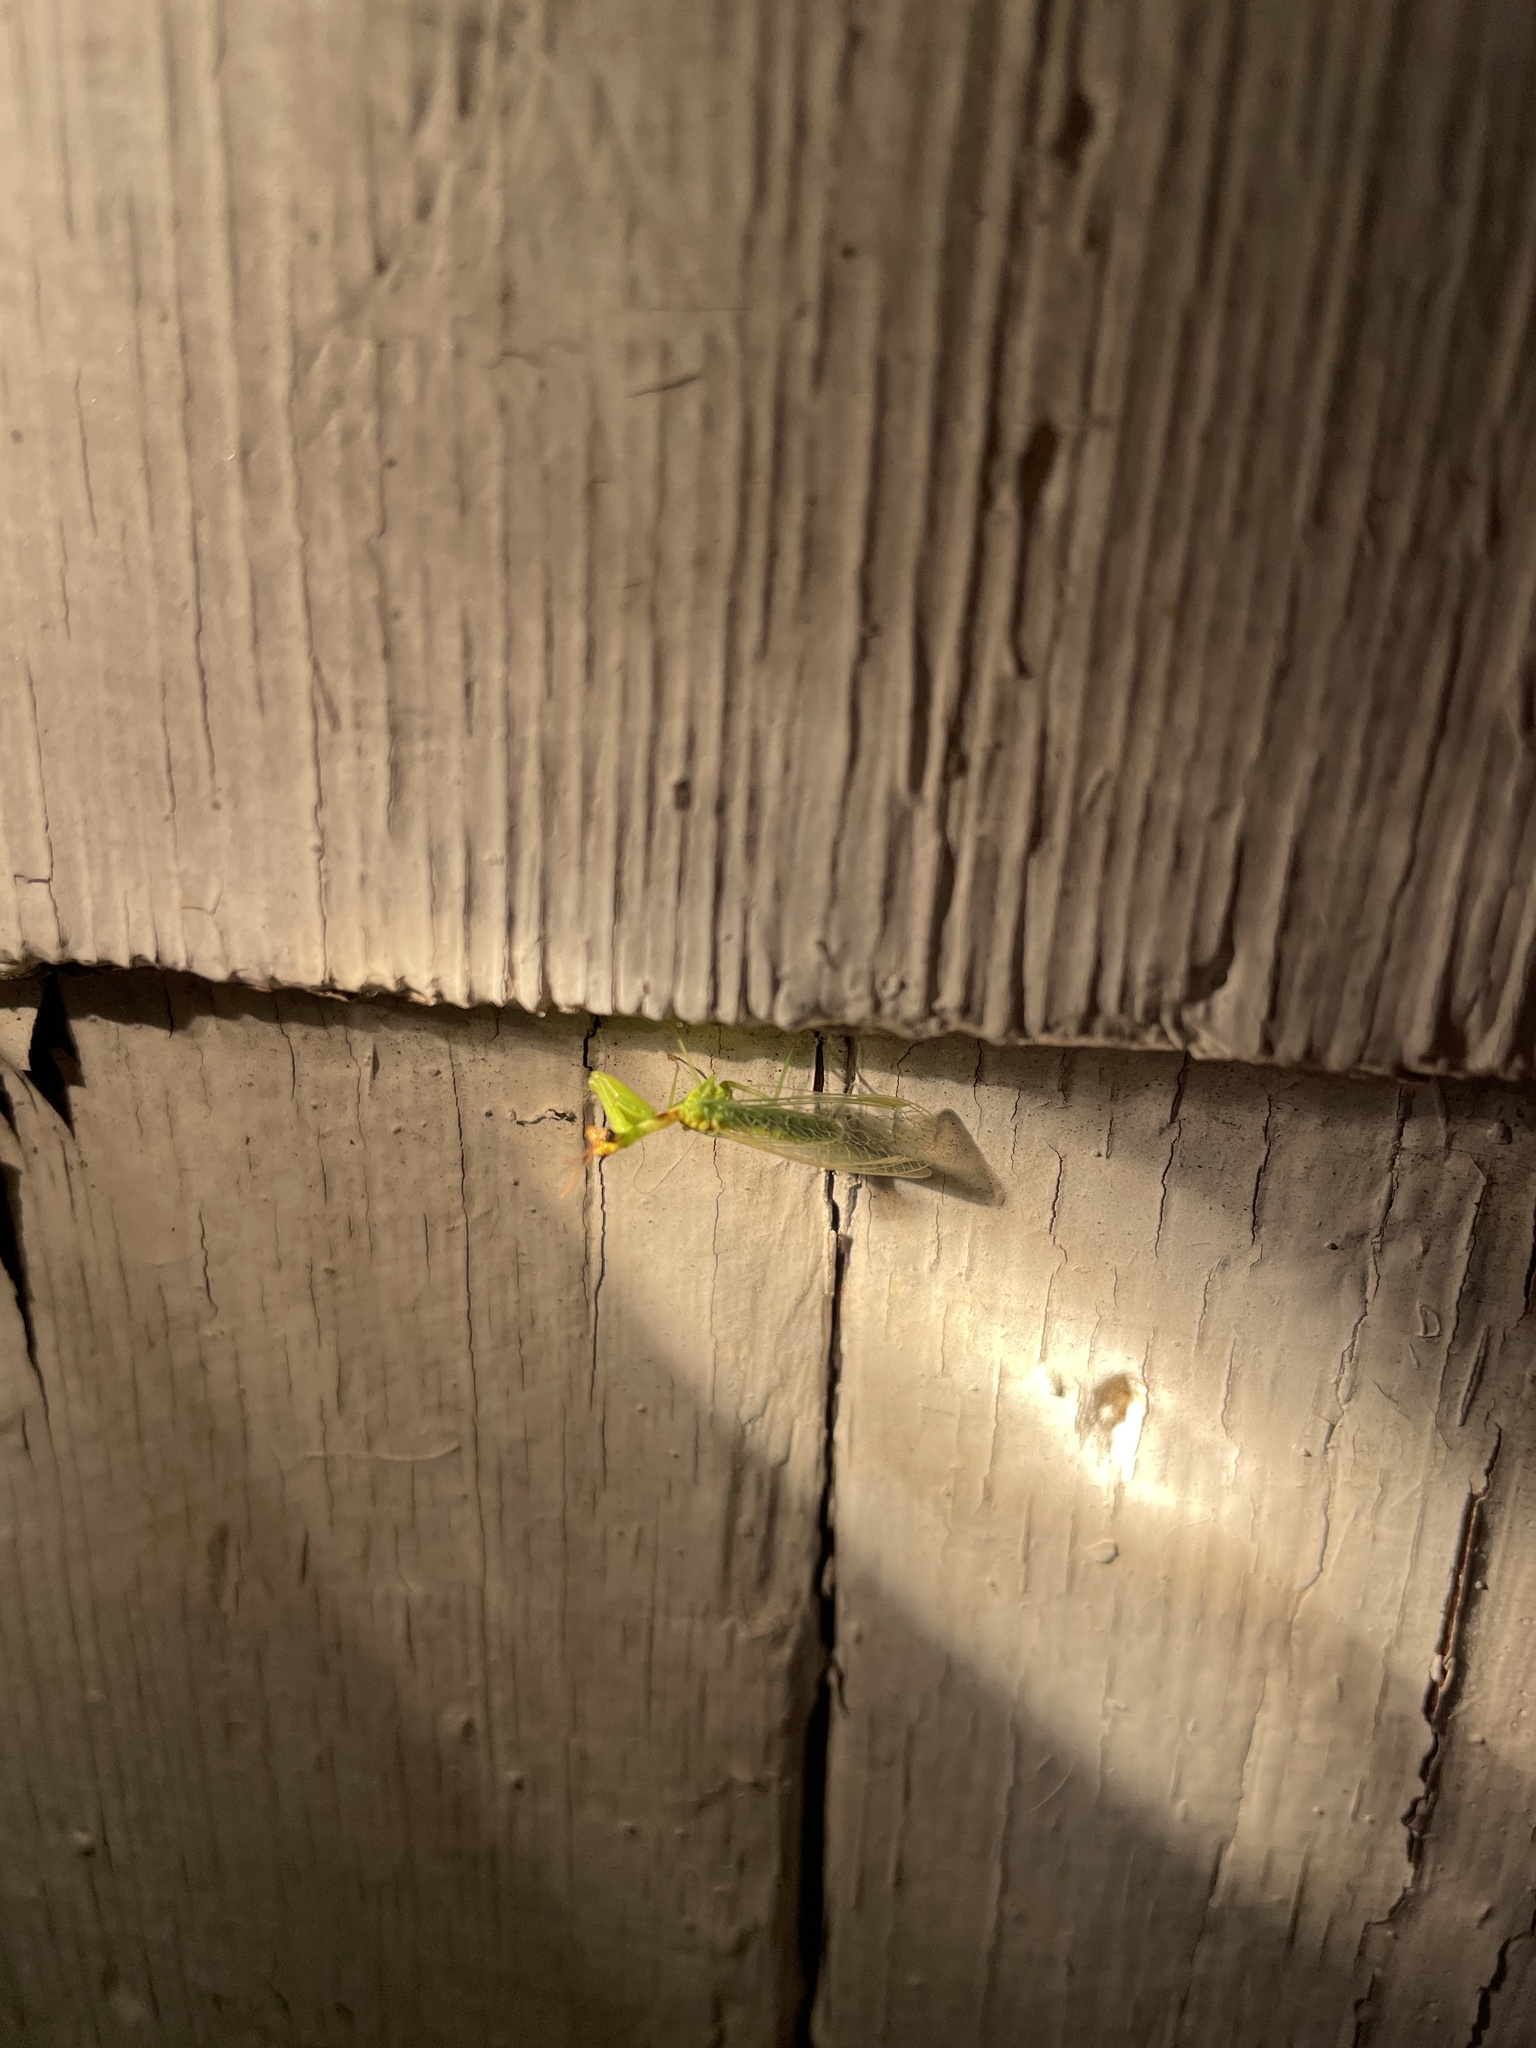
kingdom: Animalia
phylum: Arthropoda
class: Insecta
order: Neuroptera
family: Mantispidae
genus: Zeugomantispa
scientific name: Zeugomantispa minuta
